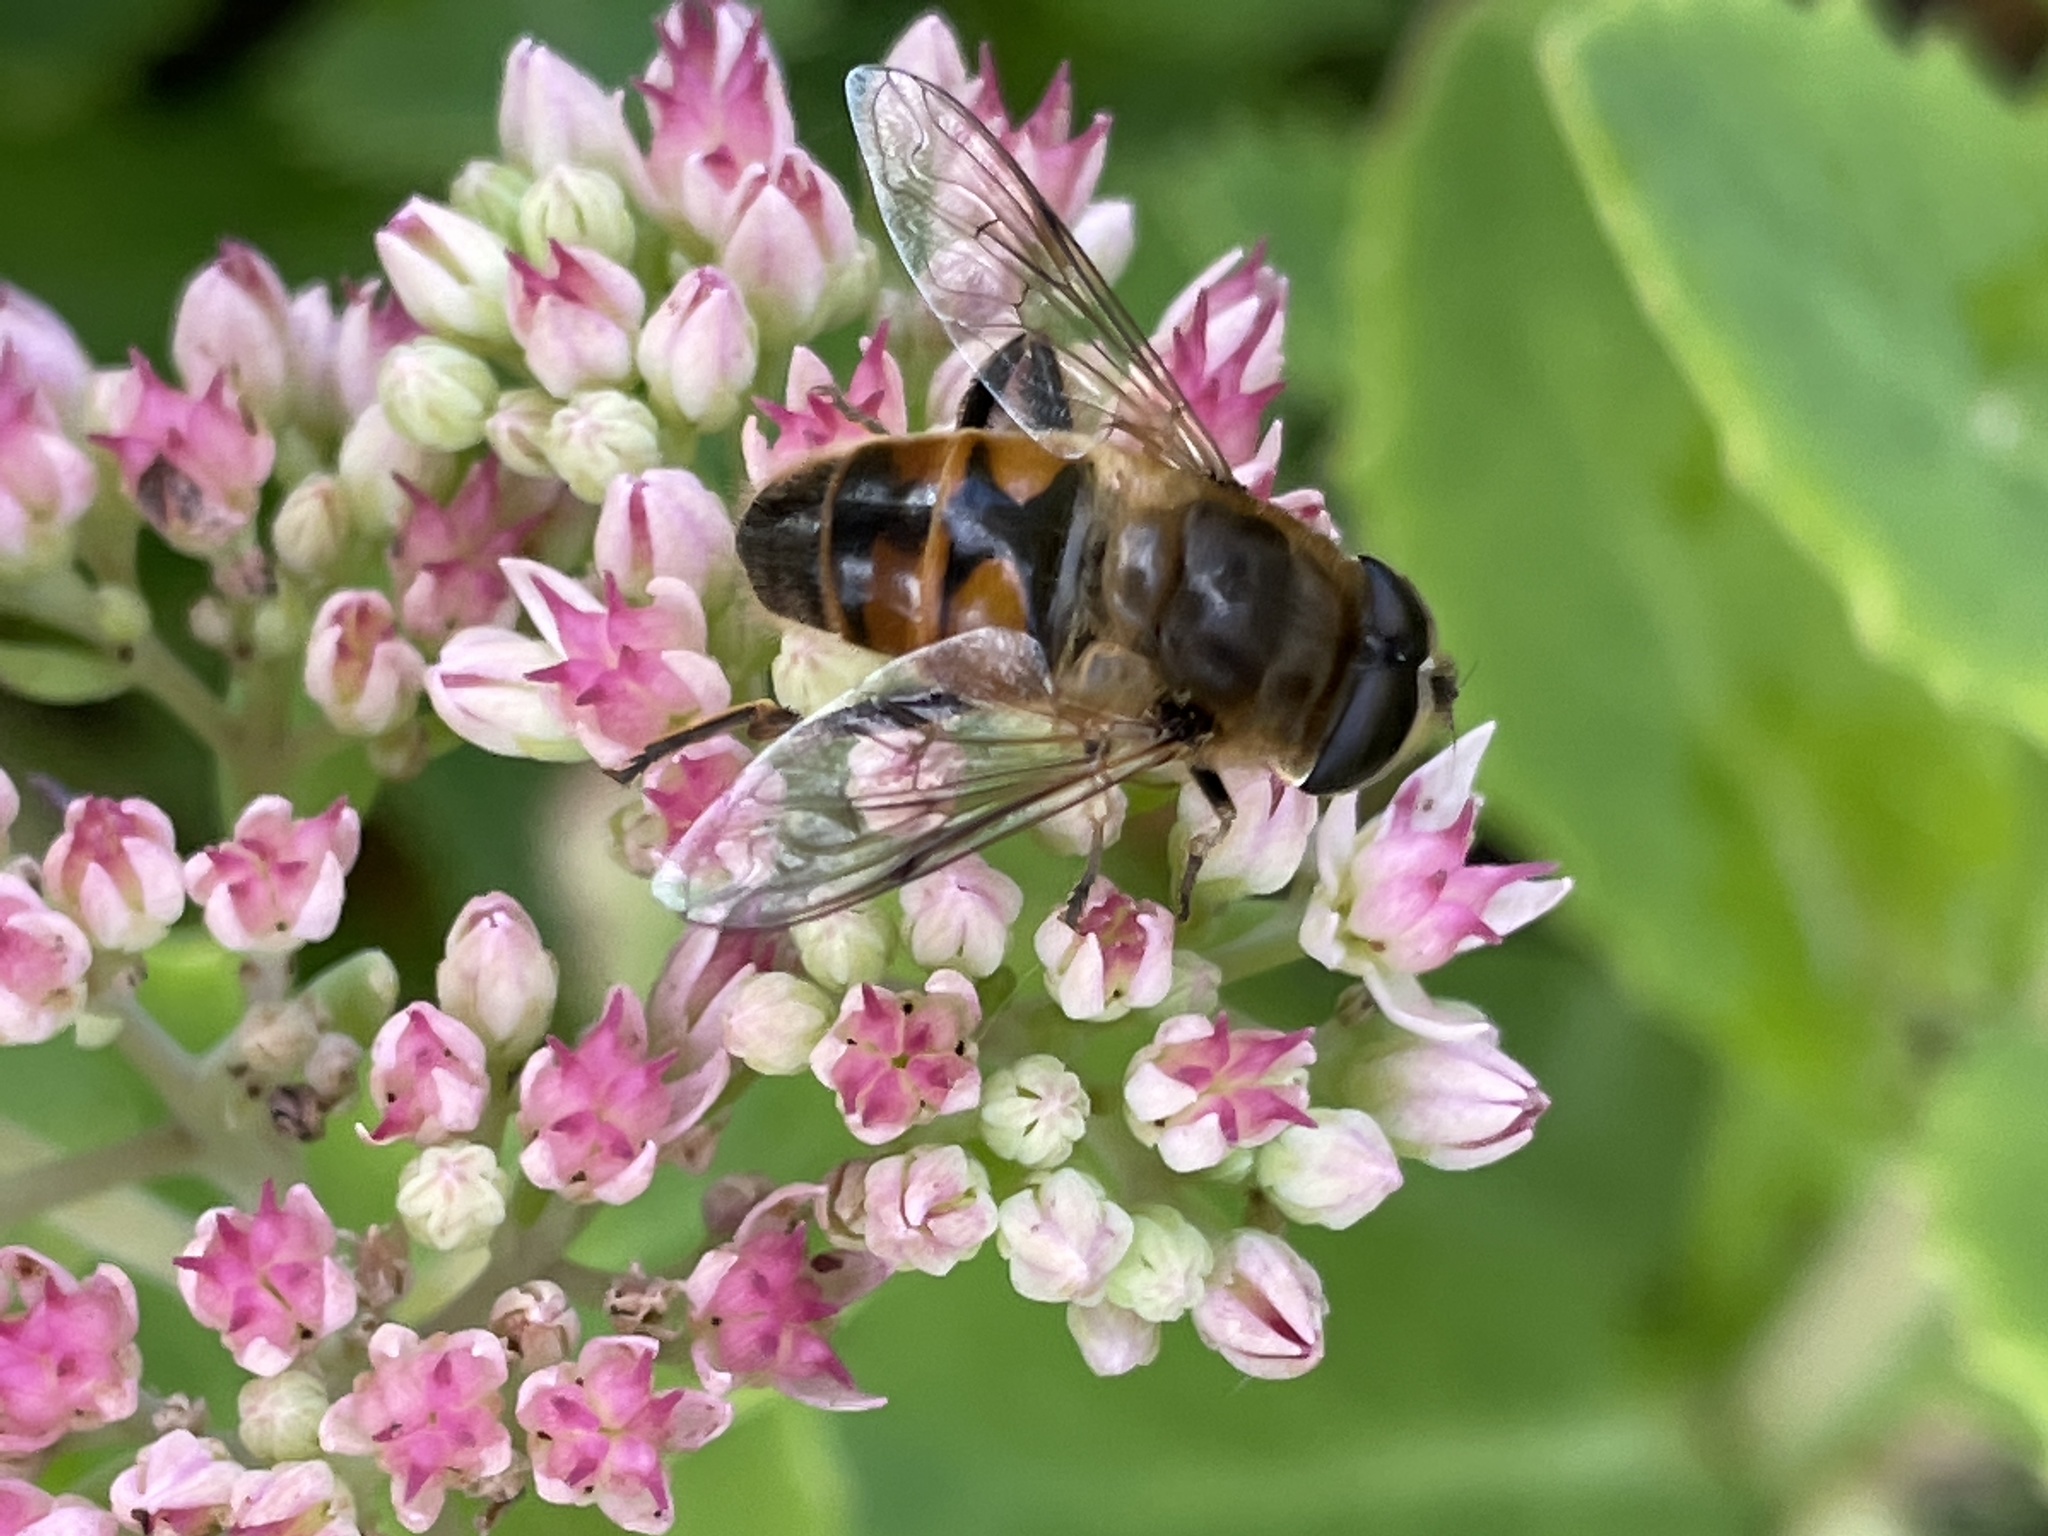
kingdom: Animalia
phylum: Arthropoda
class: Insecta
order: Diptera
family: Syrphidae
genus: Eristalis
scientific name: Eristalis tenax
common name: Drone fly
